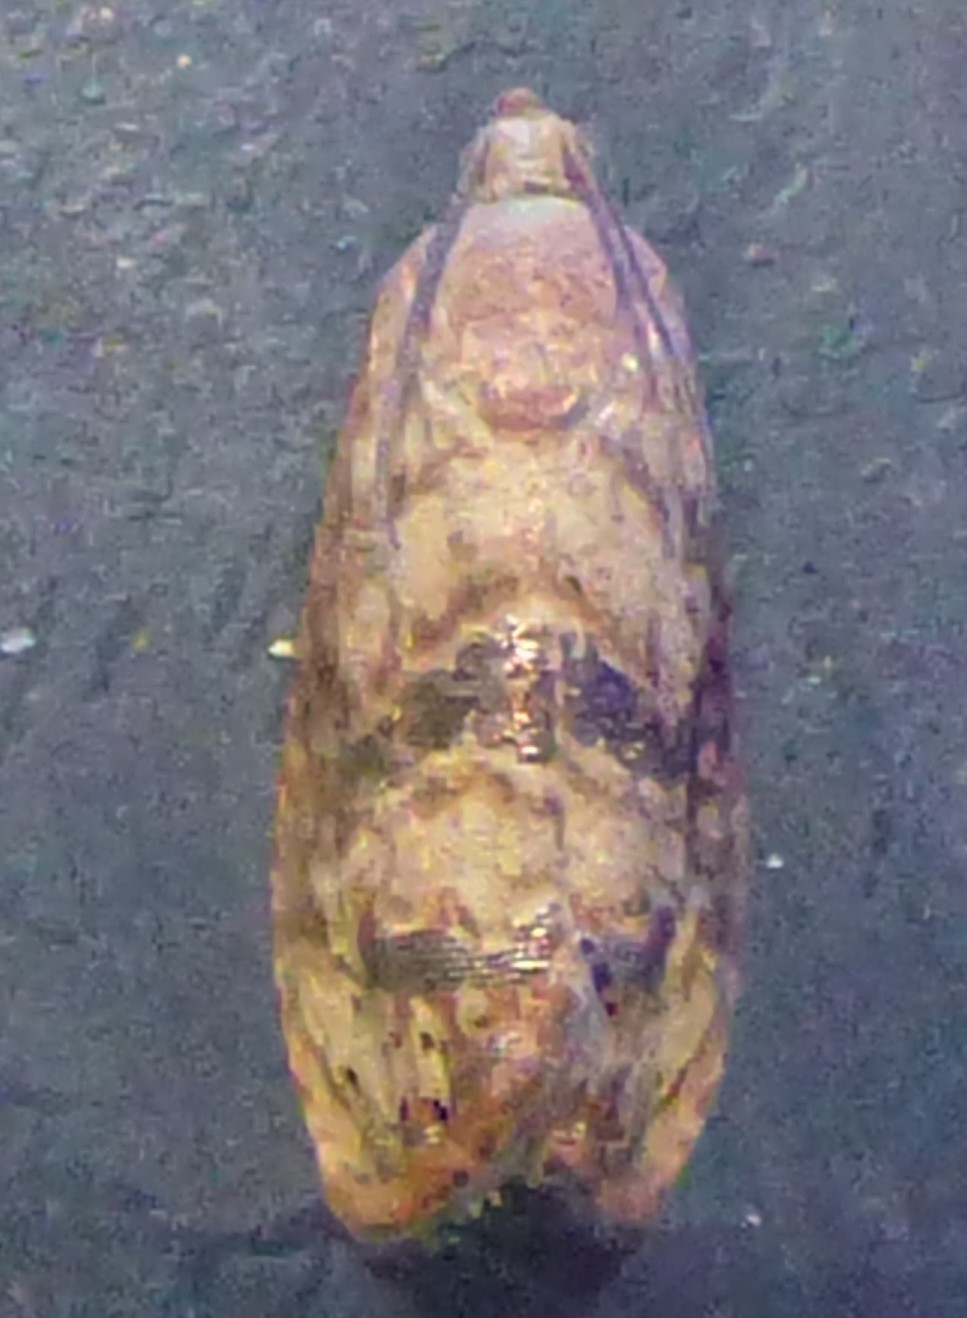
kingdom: Animalia
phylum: Arthropoda
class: Insecta
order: Lepidoptera
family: Tortricidae
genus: Cydia
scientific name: Cydia latiferreana
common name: Filbertworm moth
